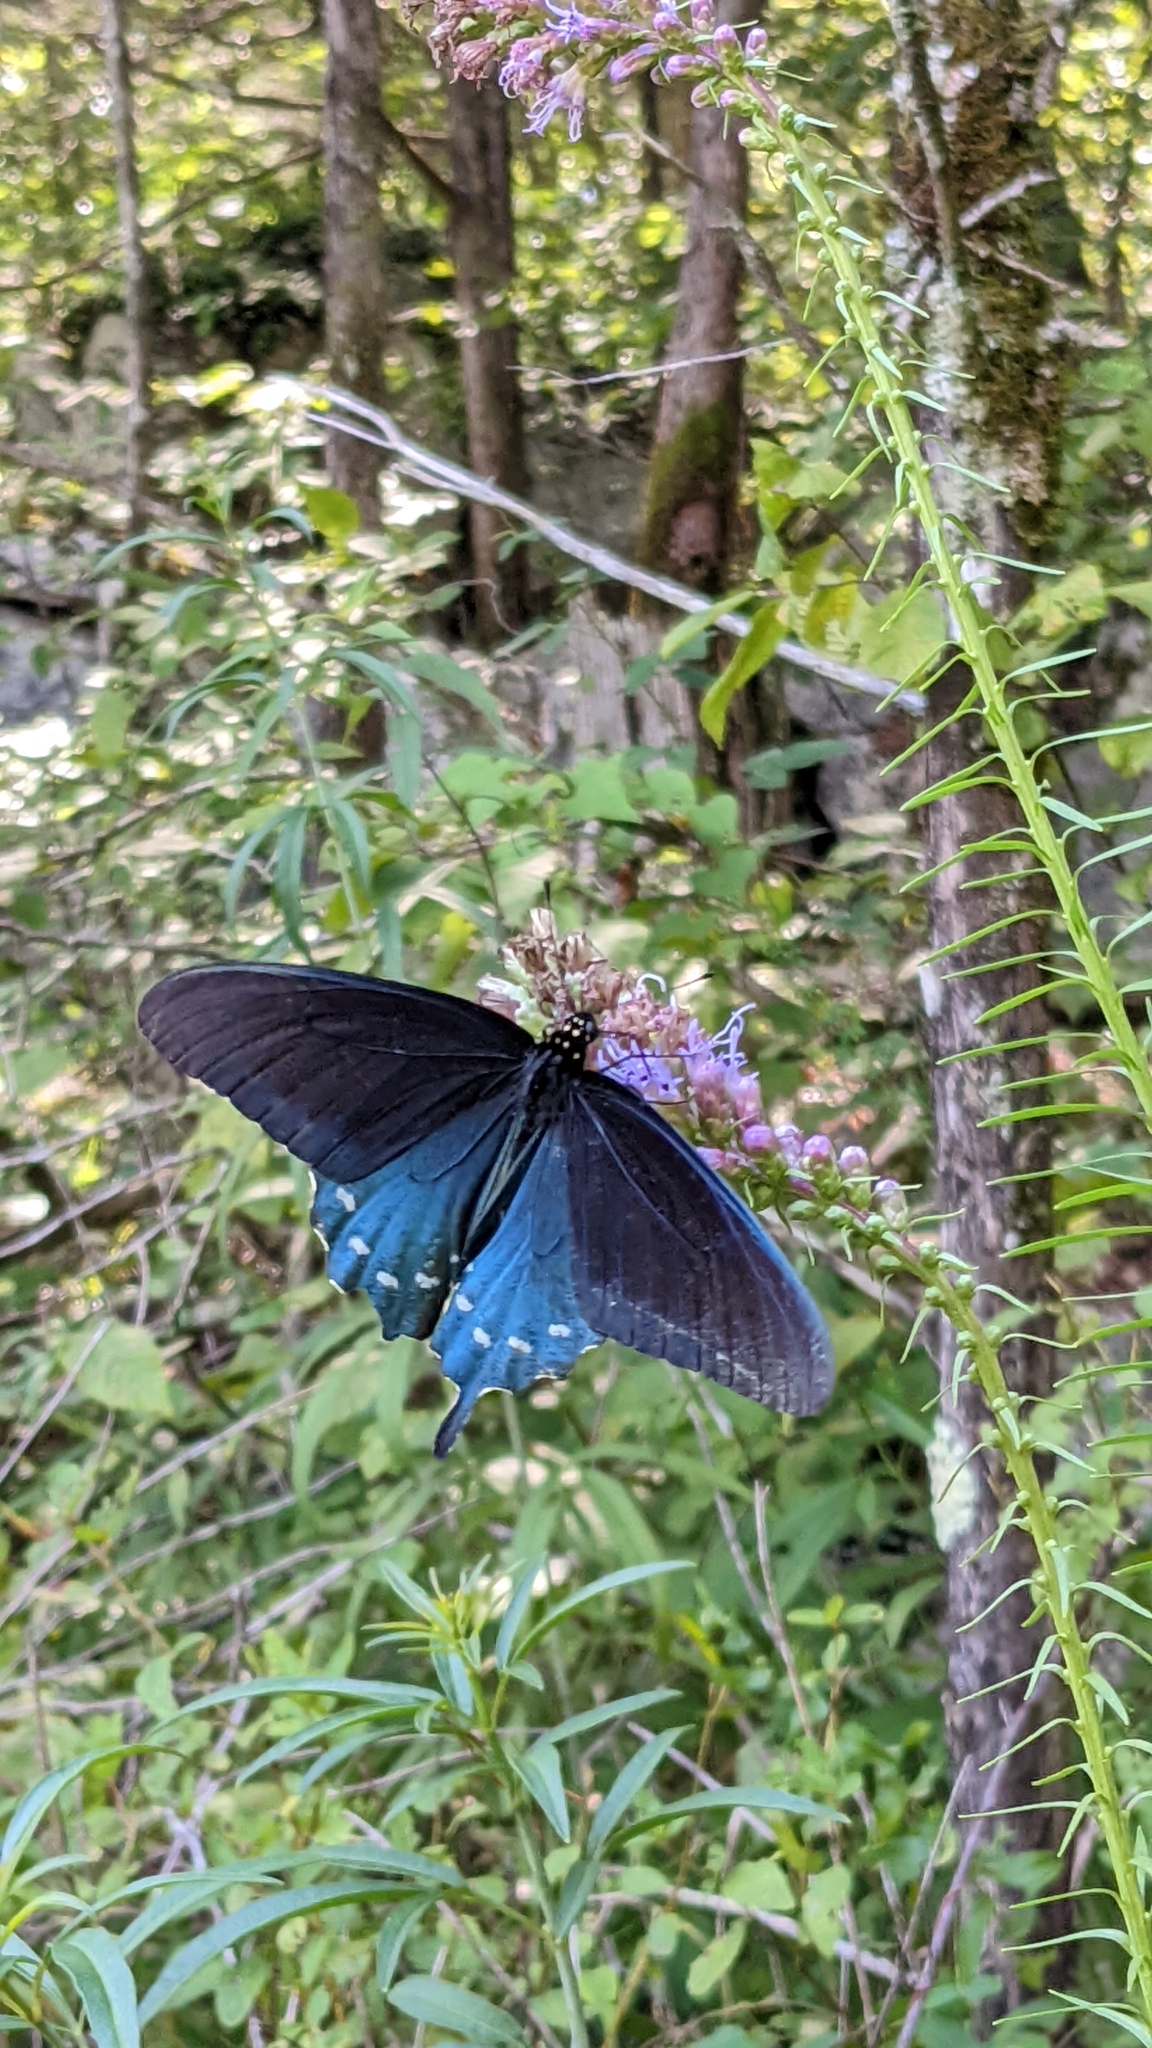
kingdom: Animalia
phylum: Arthropoda
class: Insecta
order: Lepidoptera
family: Papilionidae
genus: Battus
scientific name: Battus philenor
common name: Pipevine swallowtail
